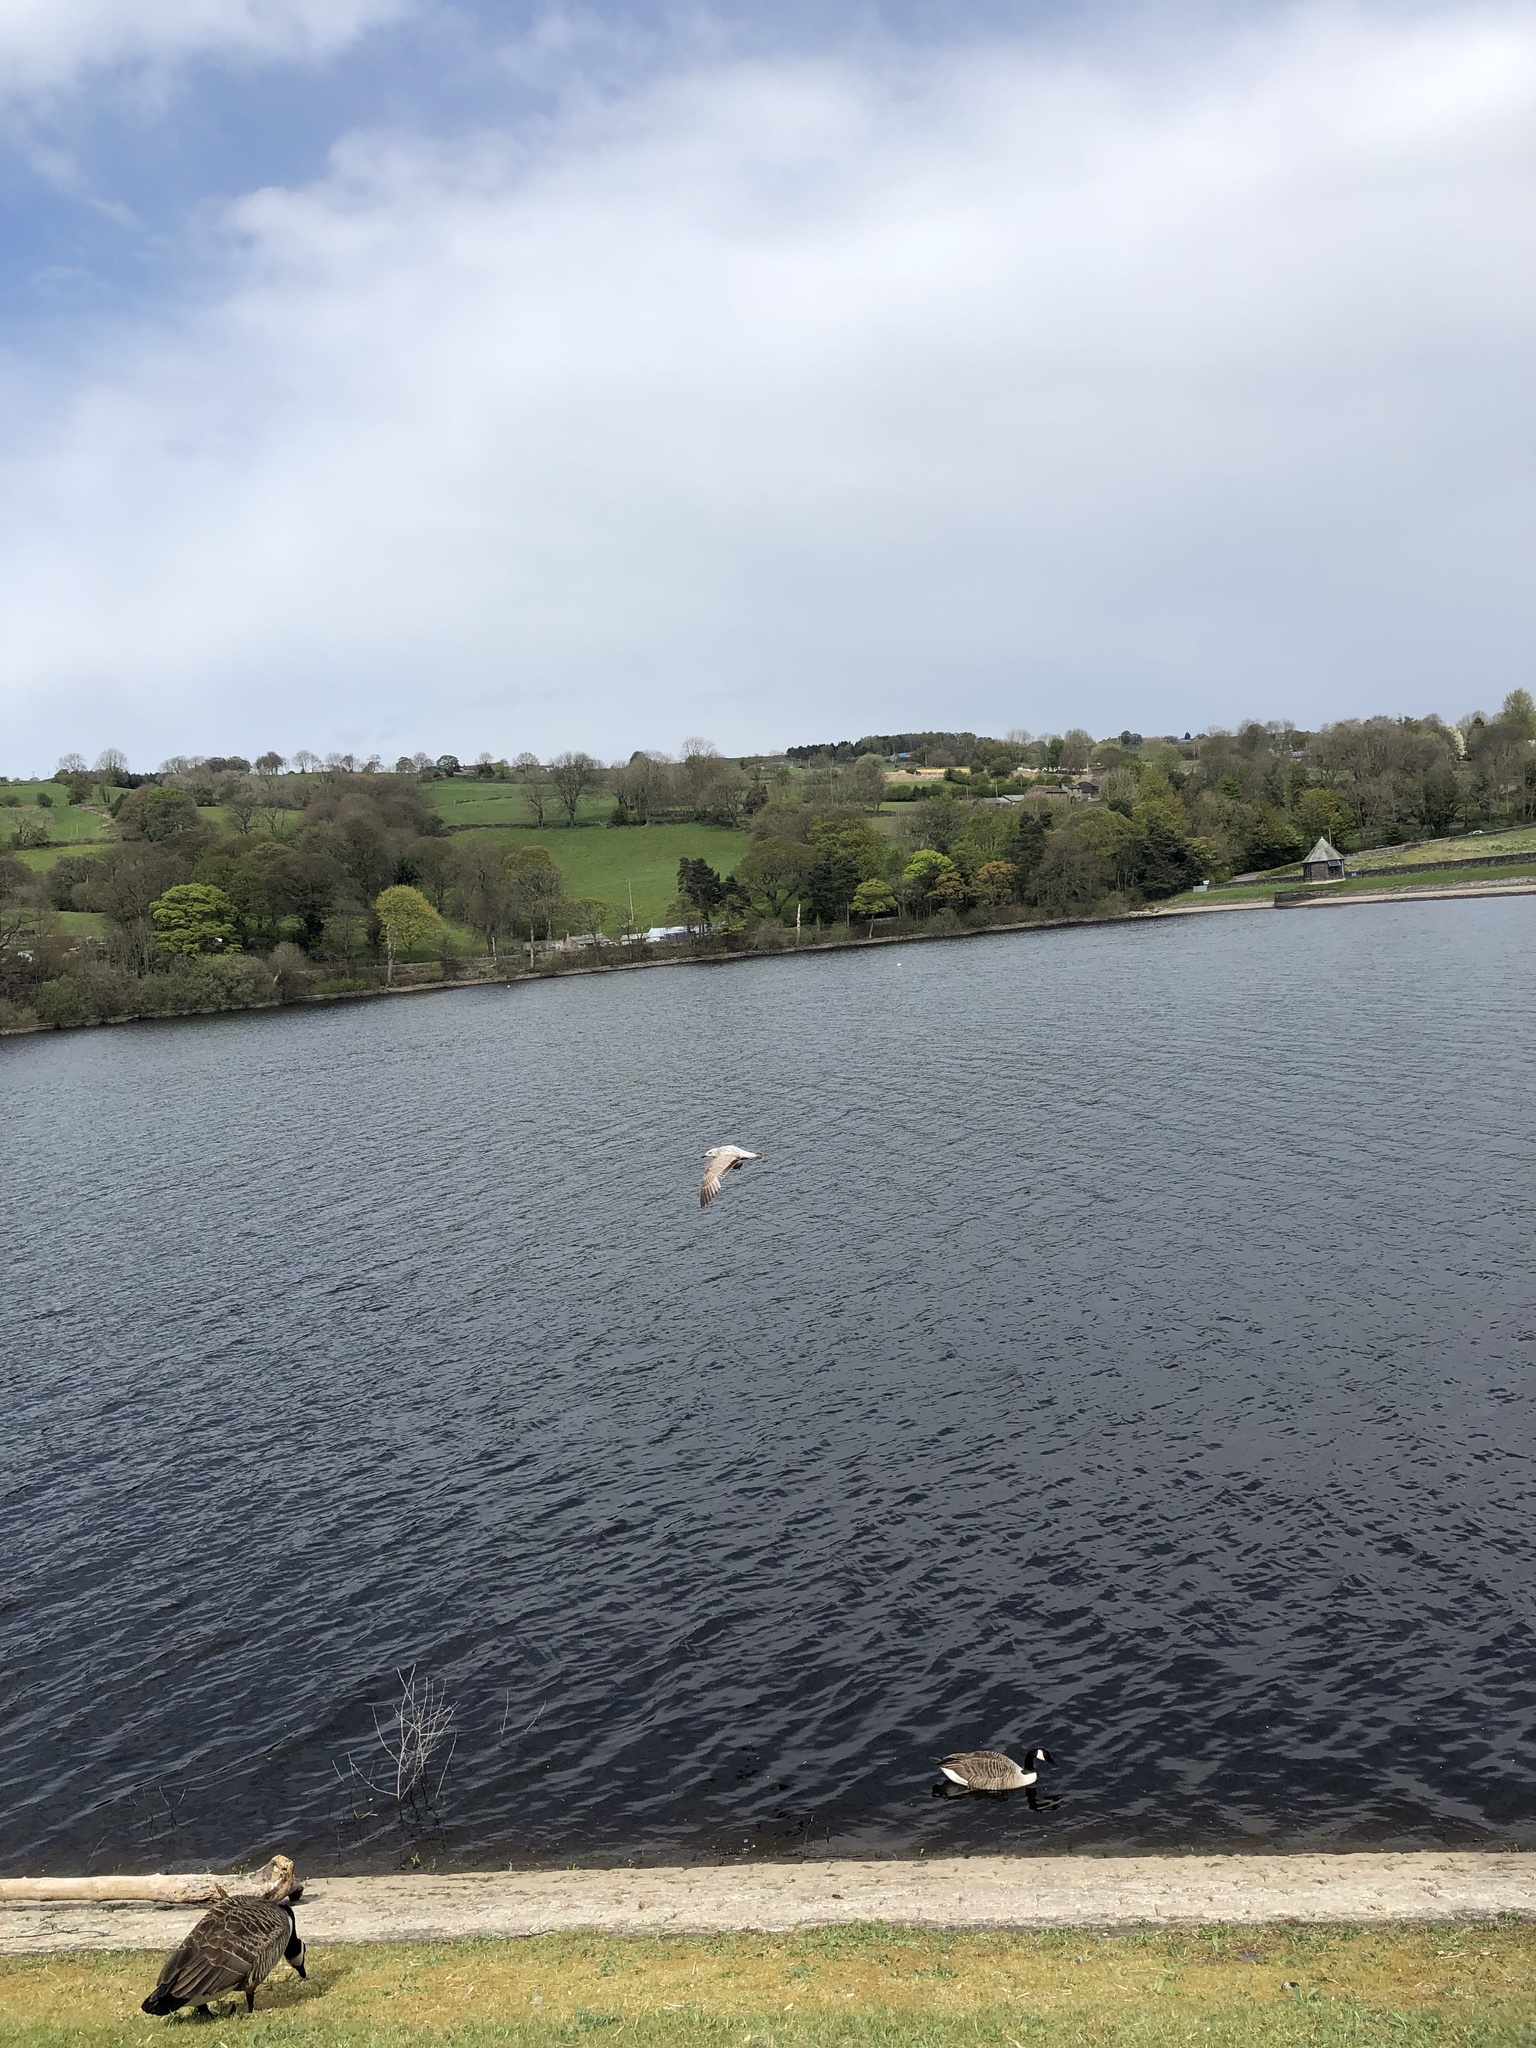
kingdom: Animalia
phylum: Chordata
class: Aves
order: Charadriiformes
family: Laridae
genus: Larus
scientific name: Larus argentatus
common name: Herring gull
